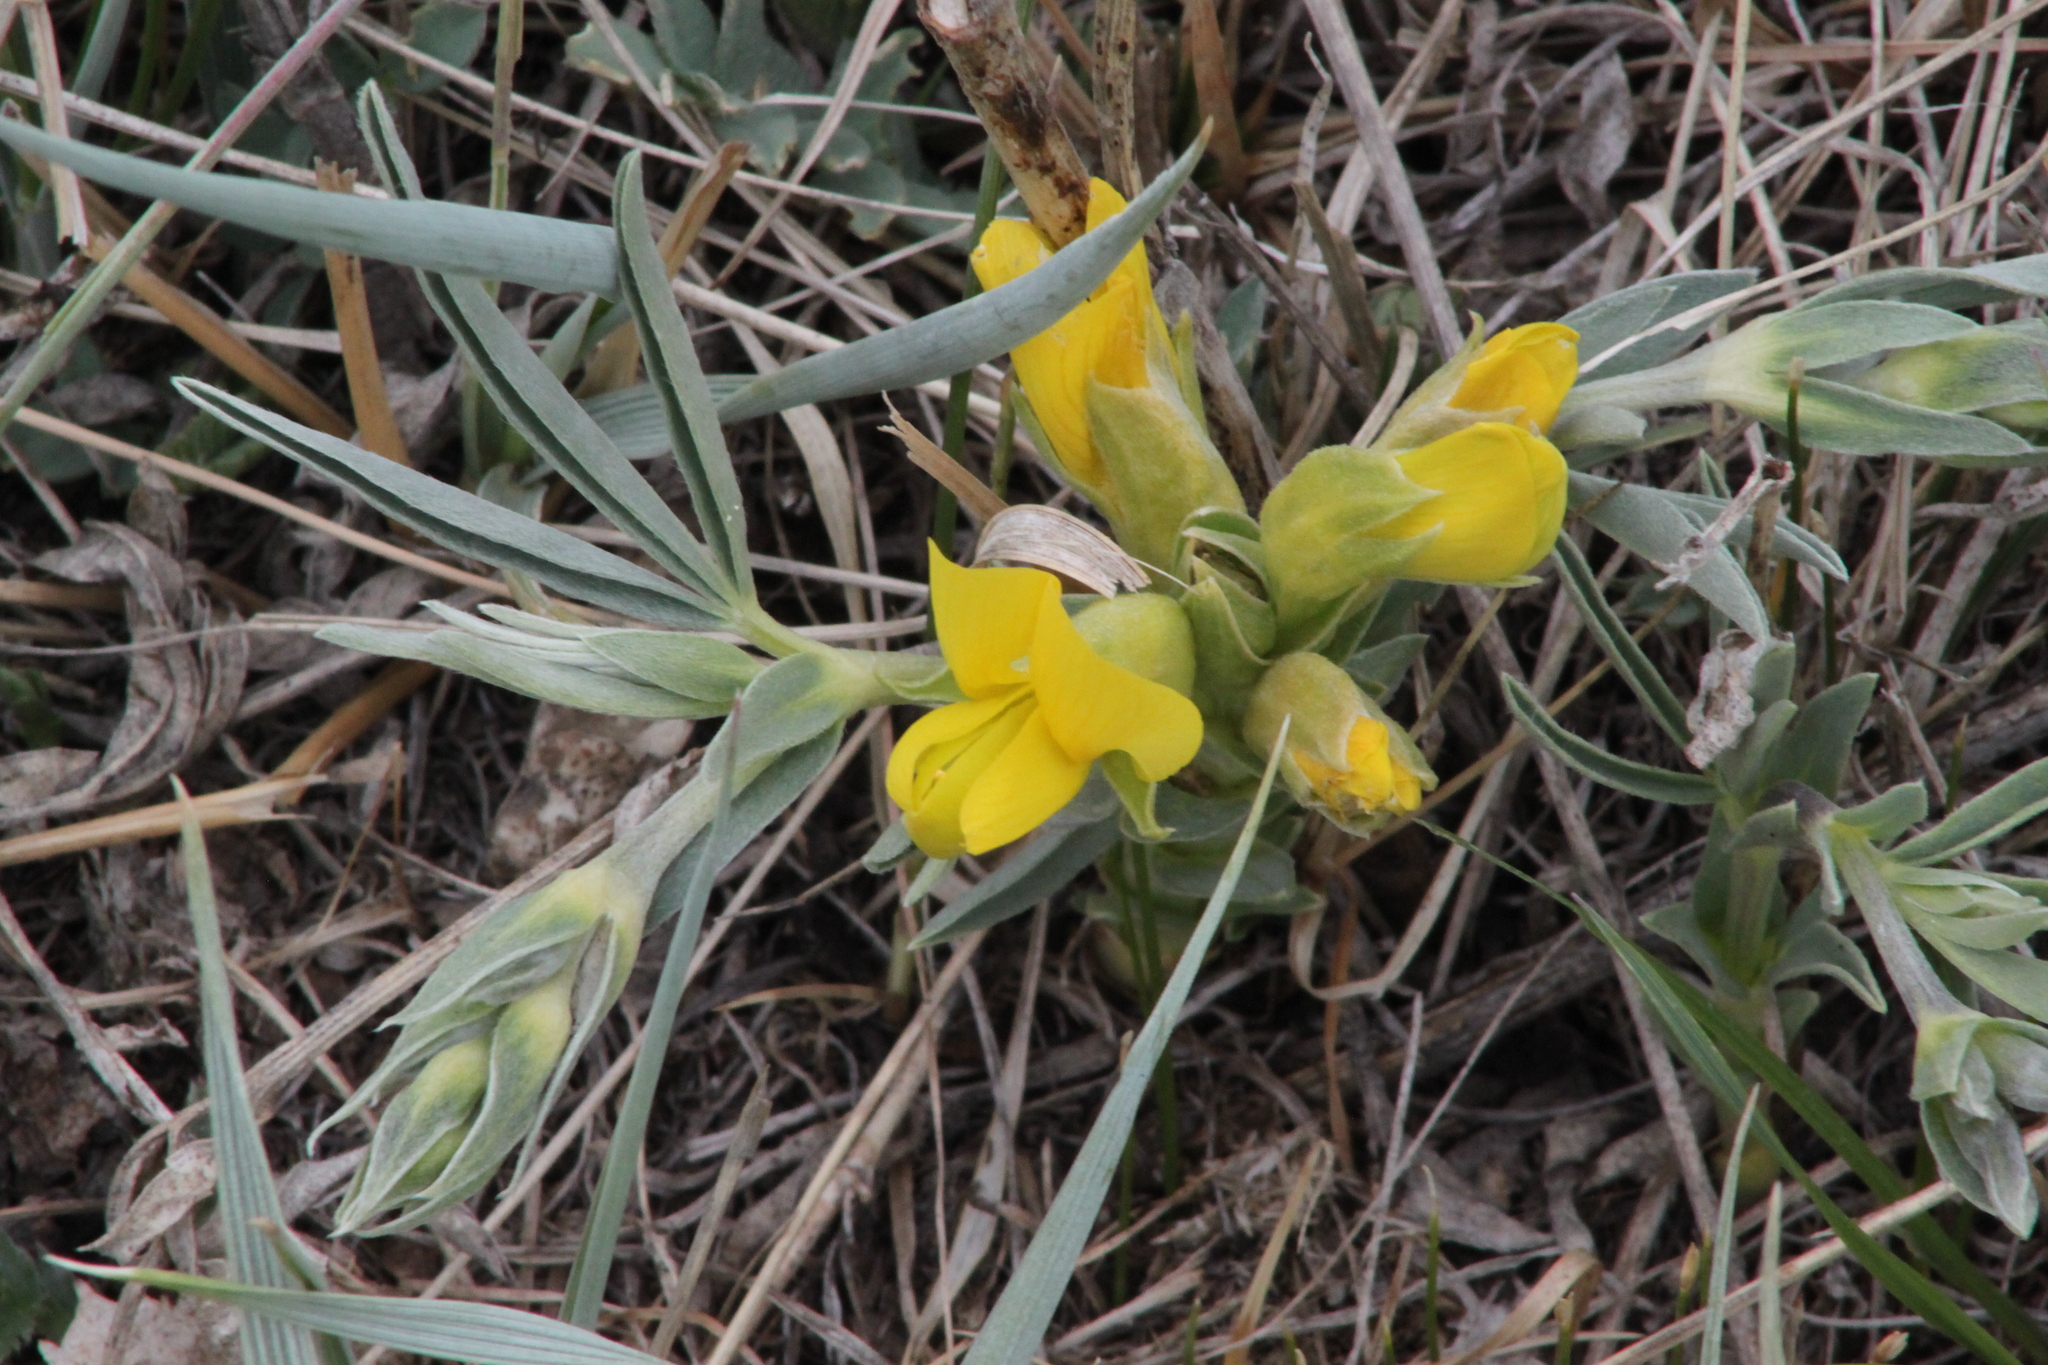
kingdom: Plantae
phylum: Tracheophyta
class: Magnoliopsida
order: Fabales
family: Fabaceae
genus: Thermopsis
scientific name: Thermopsis lanceolata
